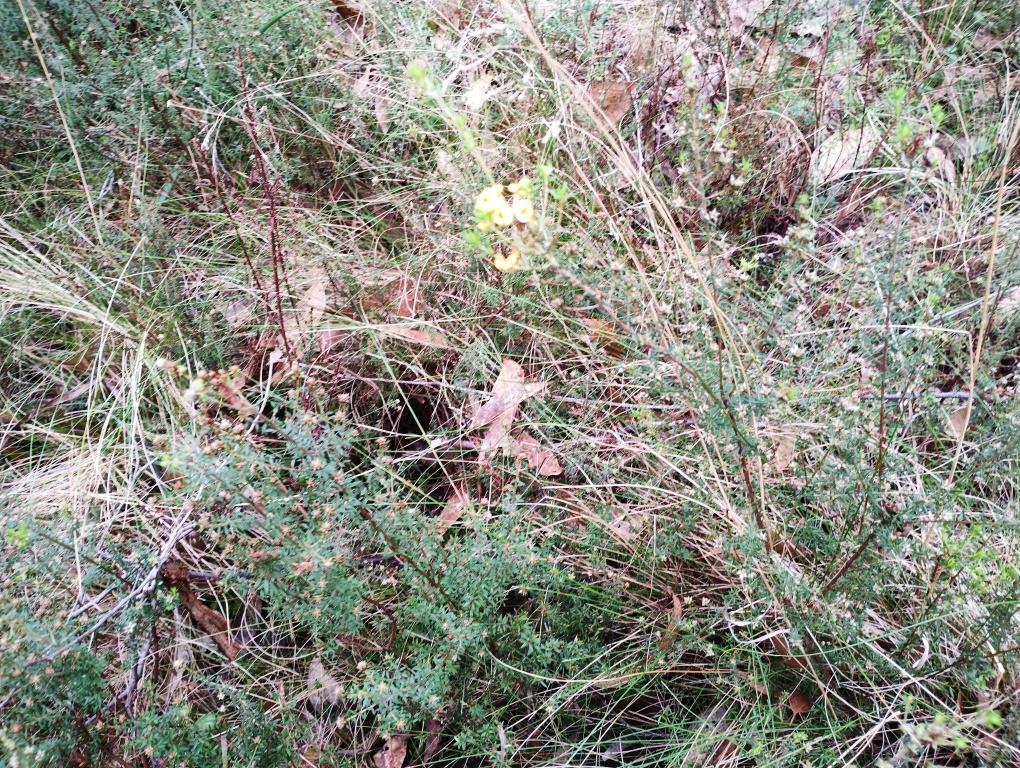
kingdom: Plantae
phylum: Tracheophyta
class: Magnoliopsida
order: Fabales
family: Fabaceae
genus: Pultenaea
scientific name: Pultenaea gunnii
